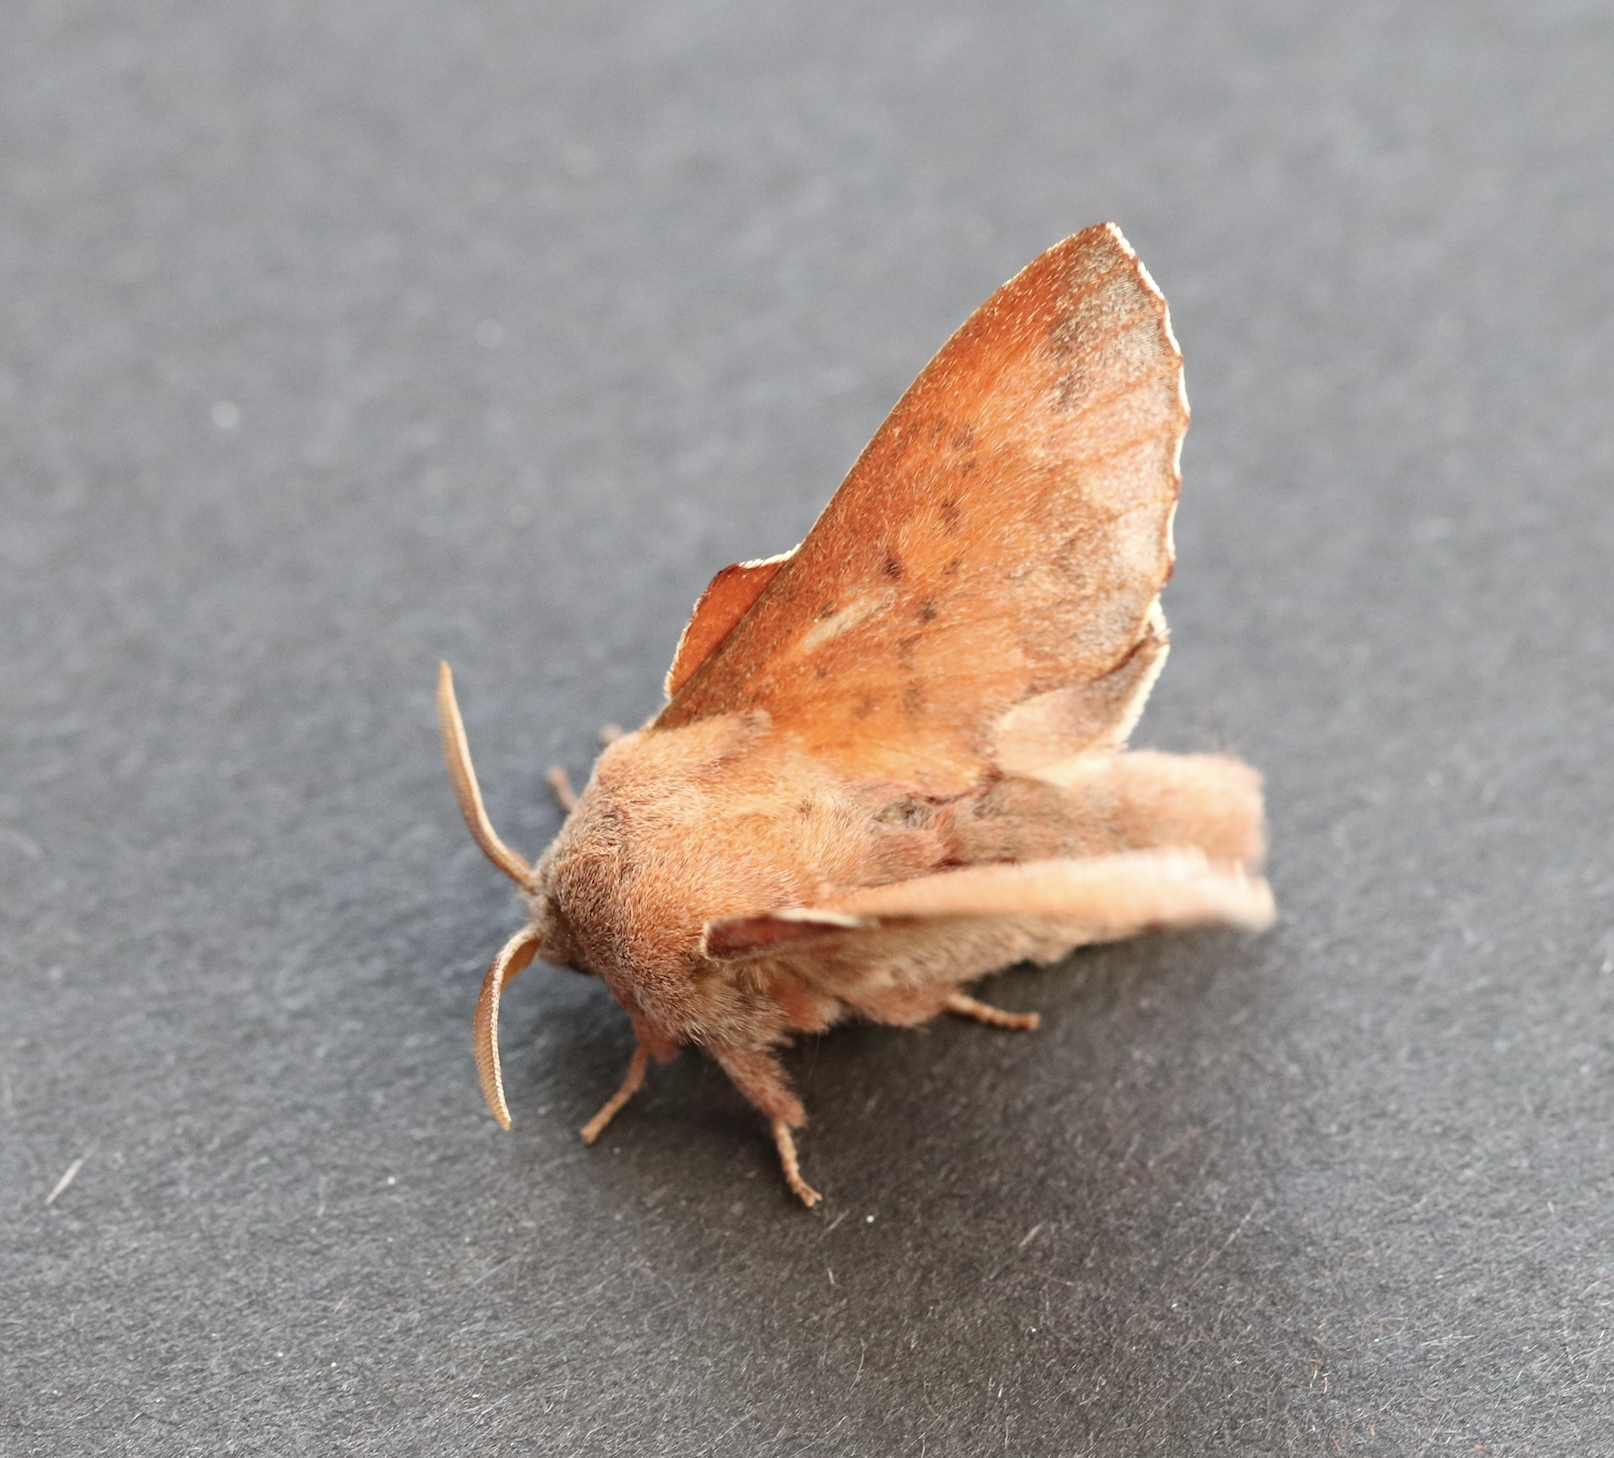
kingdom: Animalia
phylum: Arthropoda
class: Insecta
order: Lepidoptera
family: Lasiocampidae
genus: Phyllodesma
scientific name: Phyllodesma tremulifolia
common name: Aspen lappet
